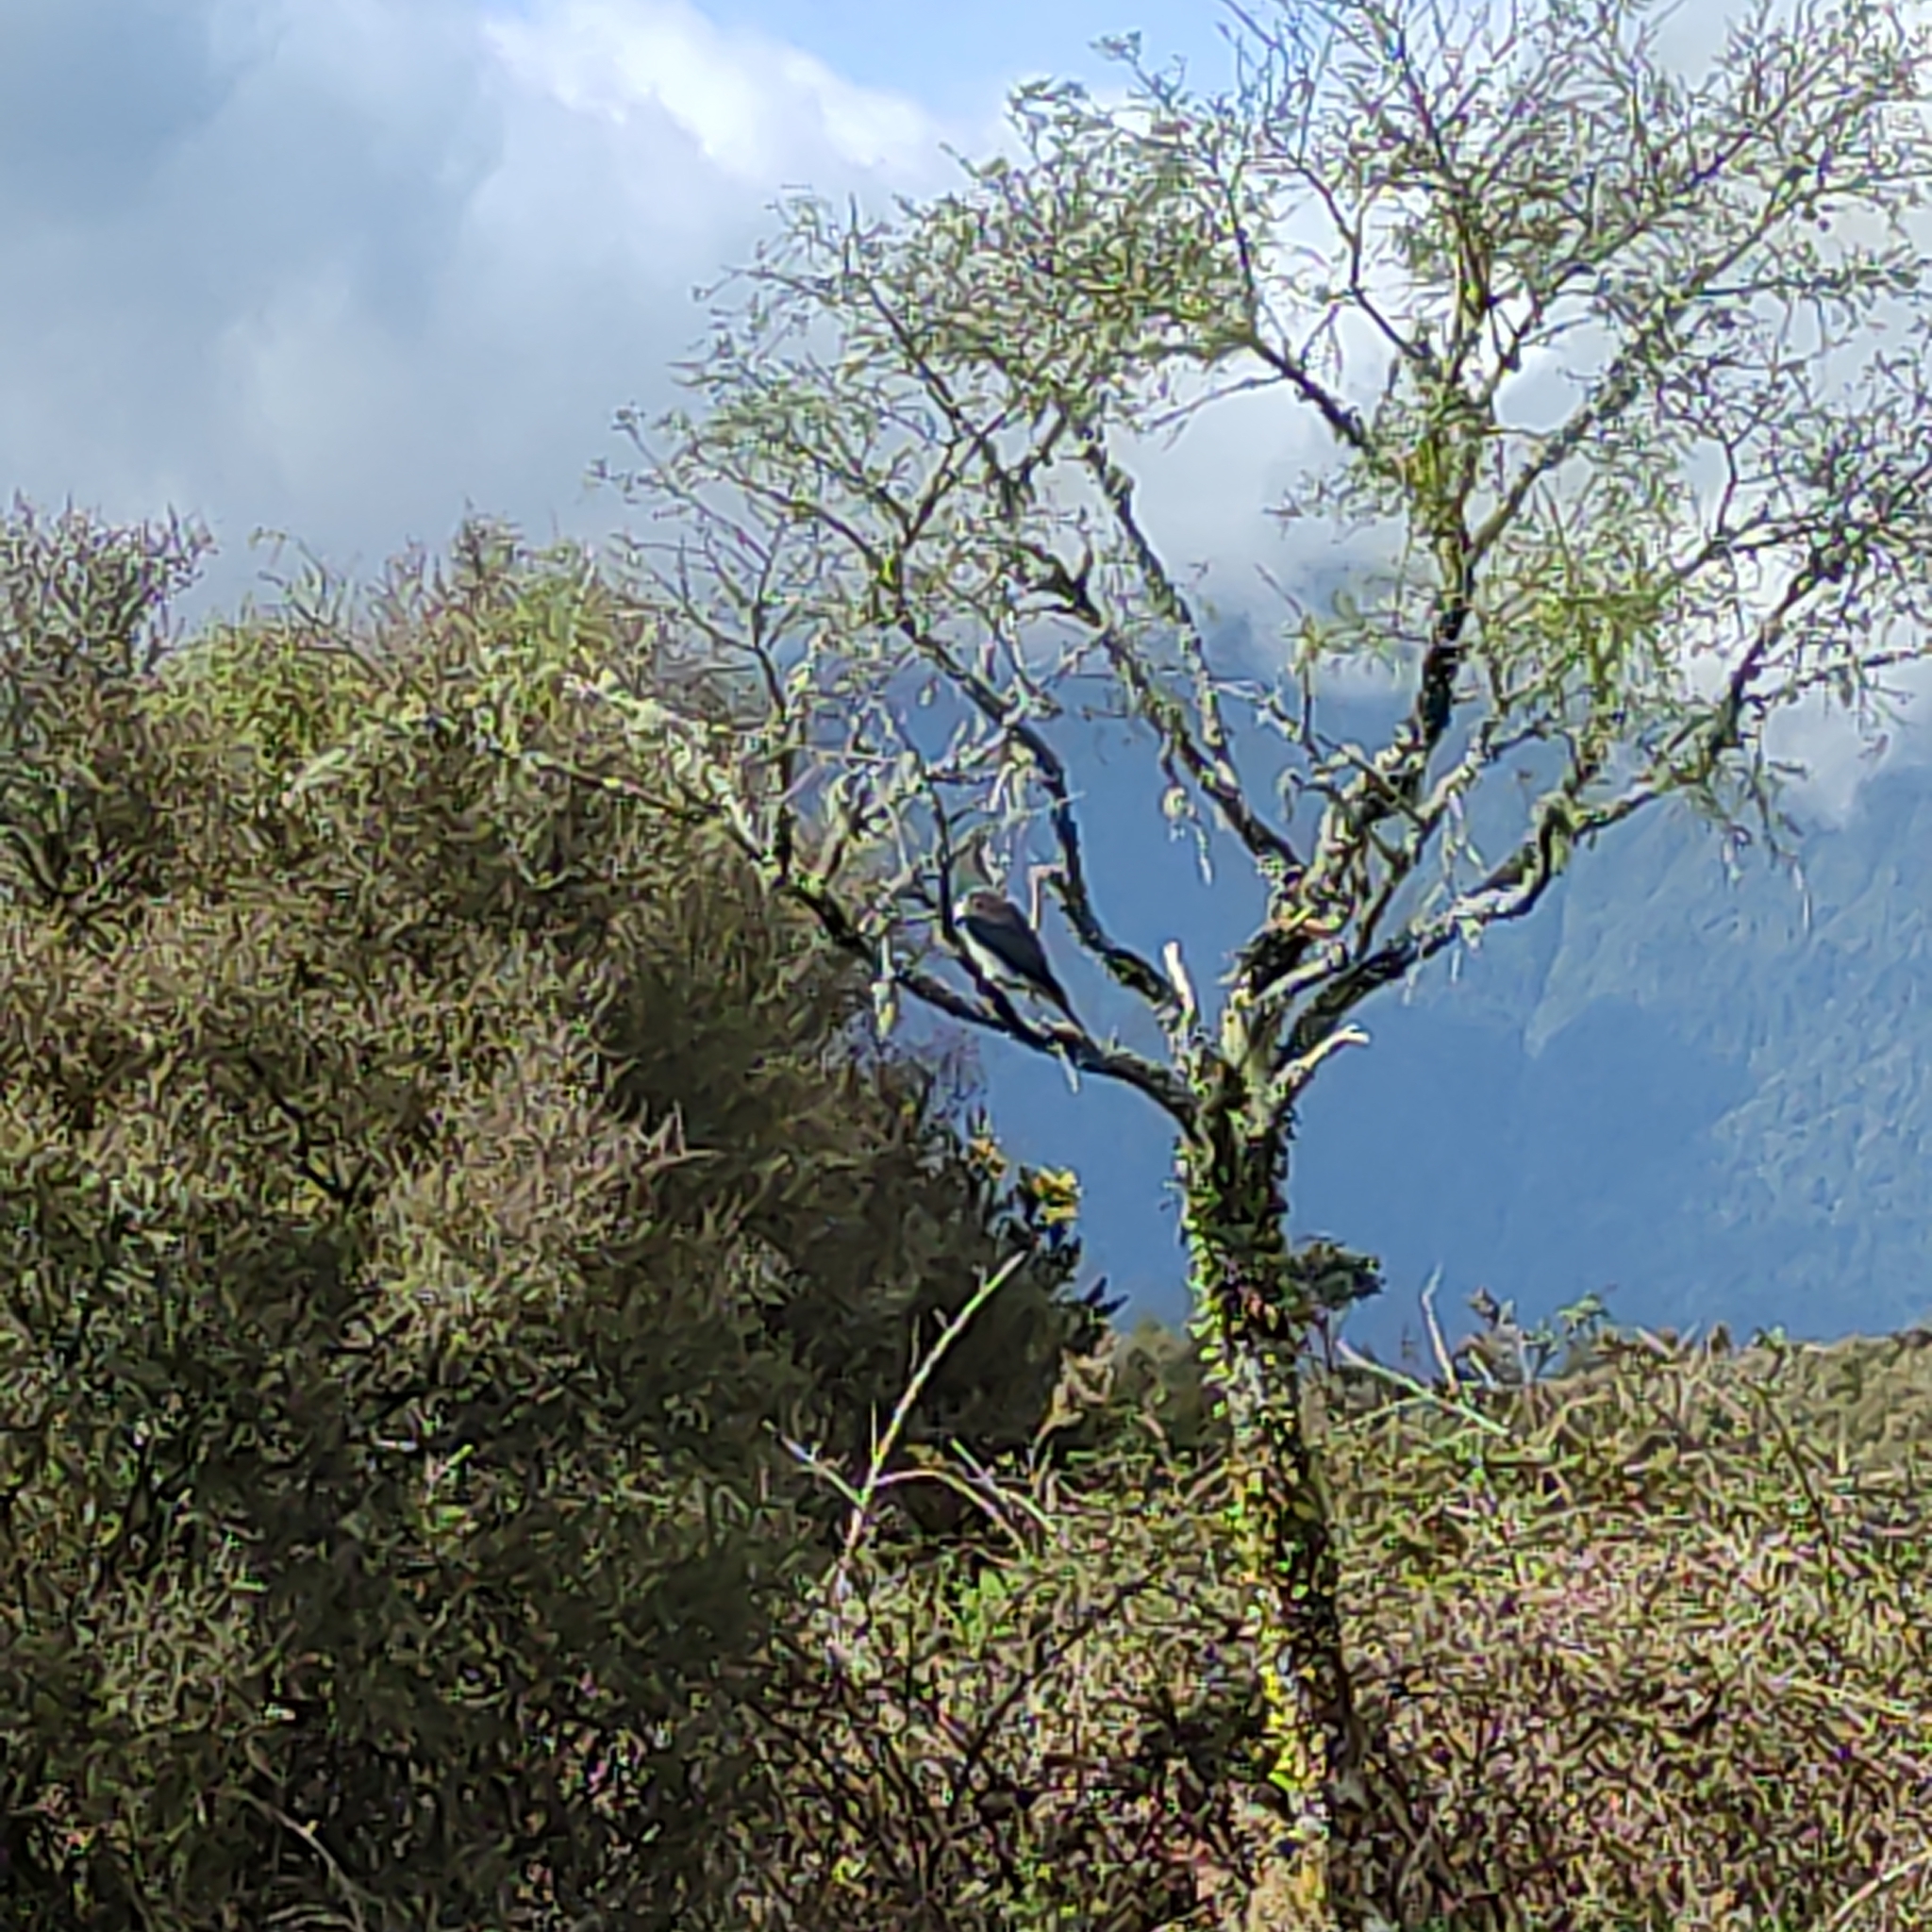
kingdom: Animalia
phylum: Chordata
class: Aves
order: Columbiformes
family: Columbidae
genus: Hemiphaga
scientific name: Hemiphaga novaeseelandiae
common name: New zealand pigeon
